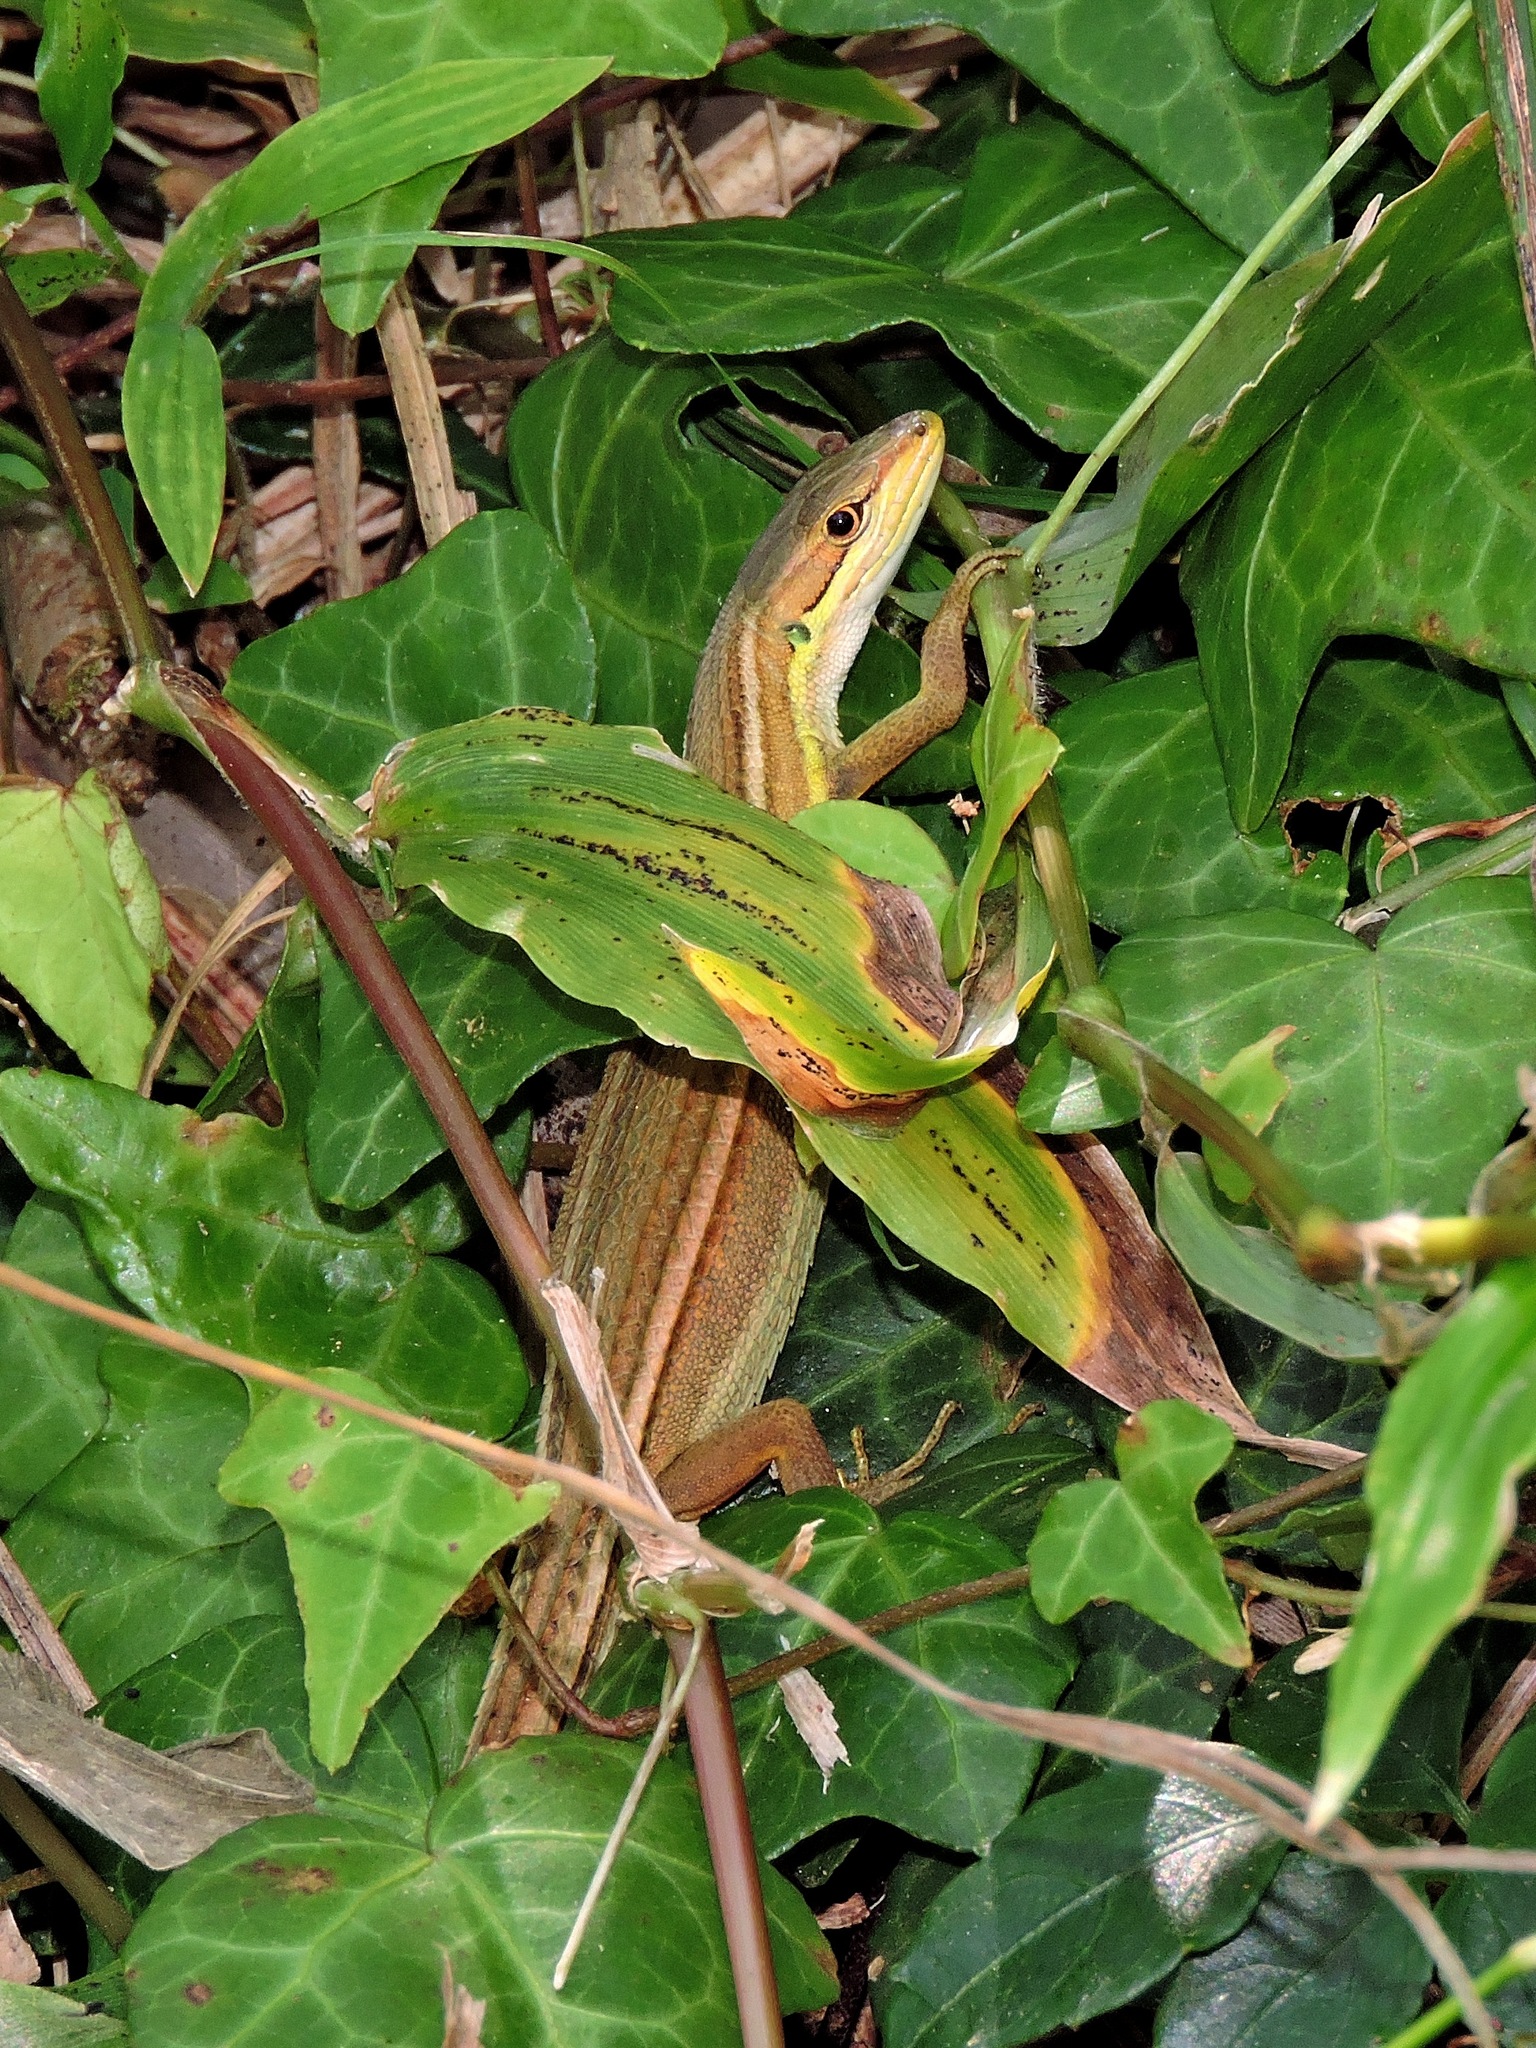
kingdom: Animalia
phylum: Chordata
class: Squamata
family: Lacertidae
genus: Takydromus
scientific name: Takydromus stejnegeri
